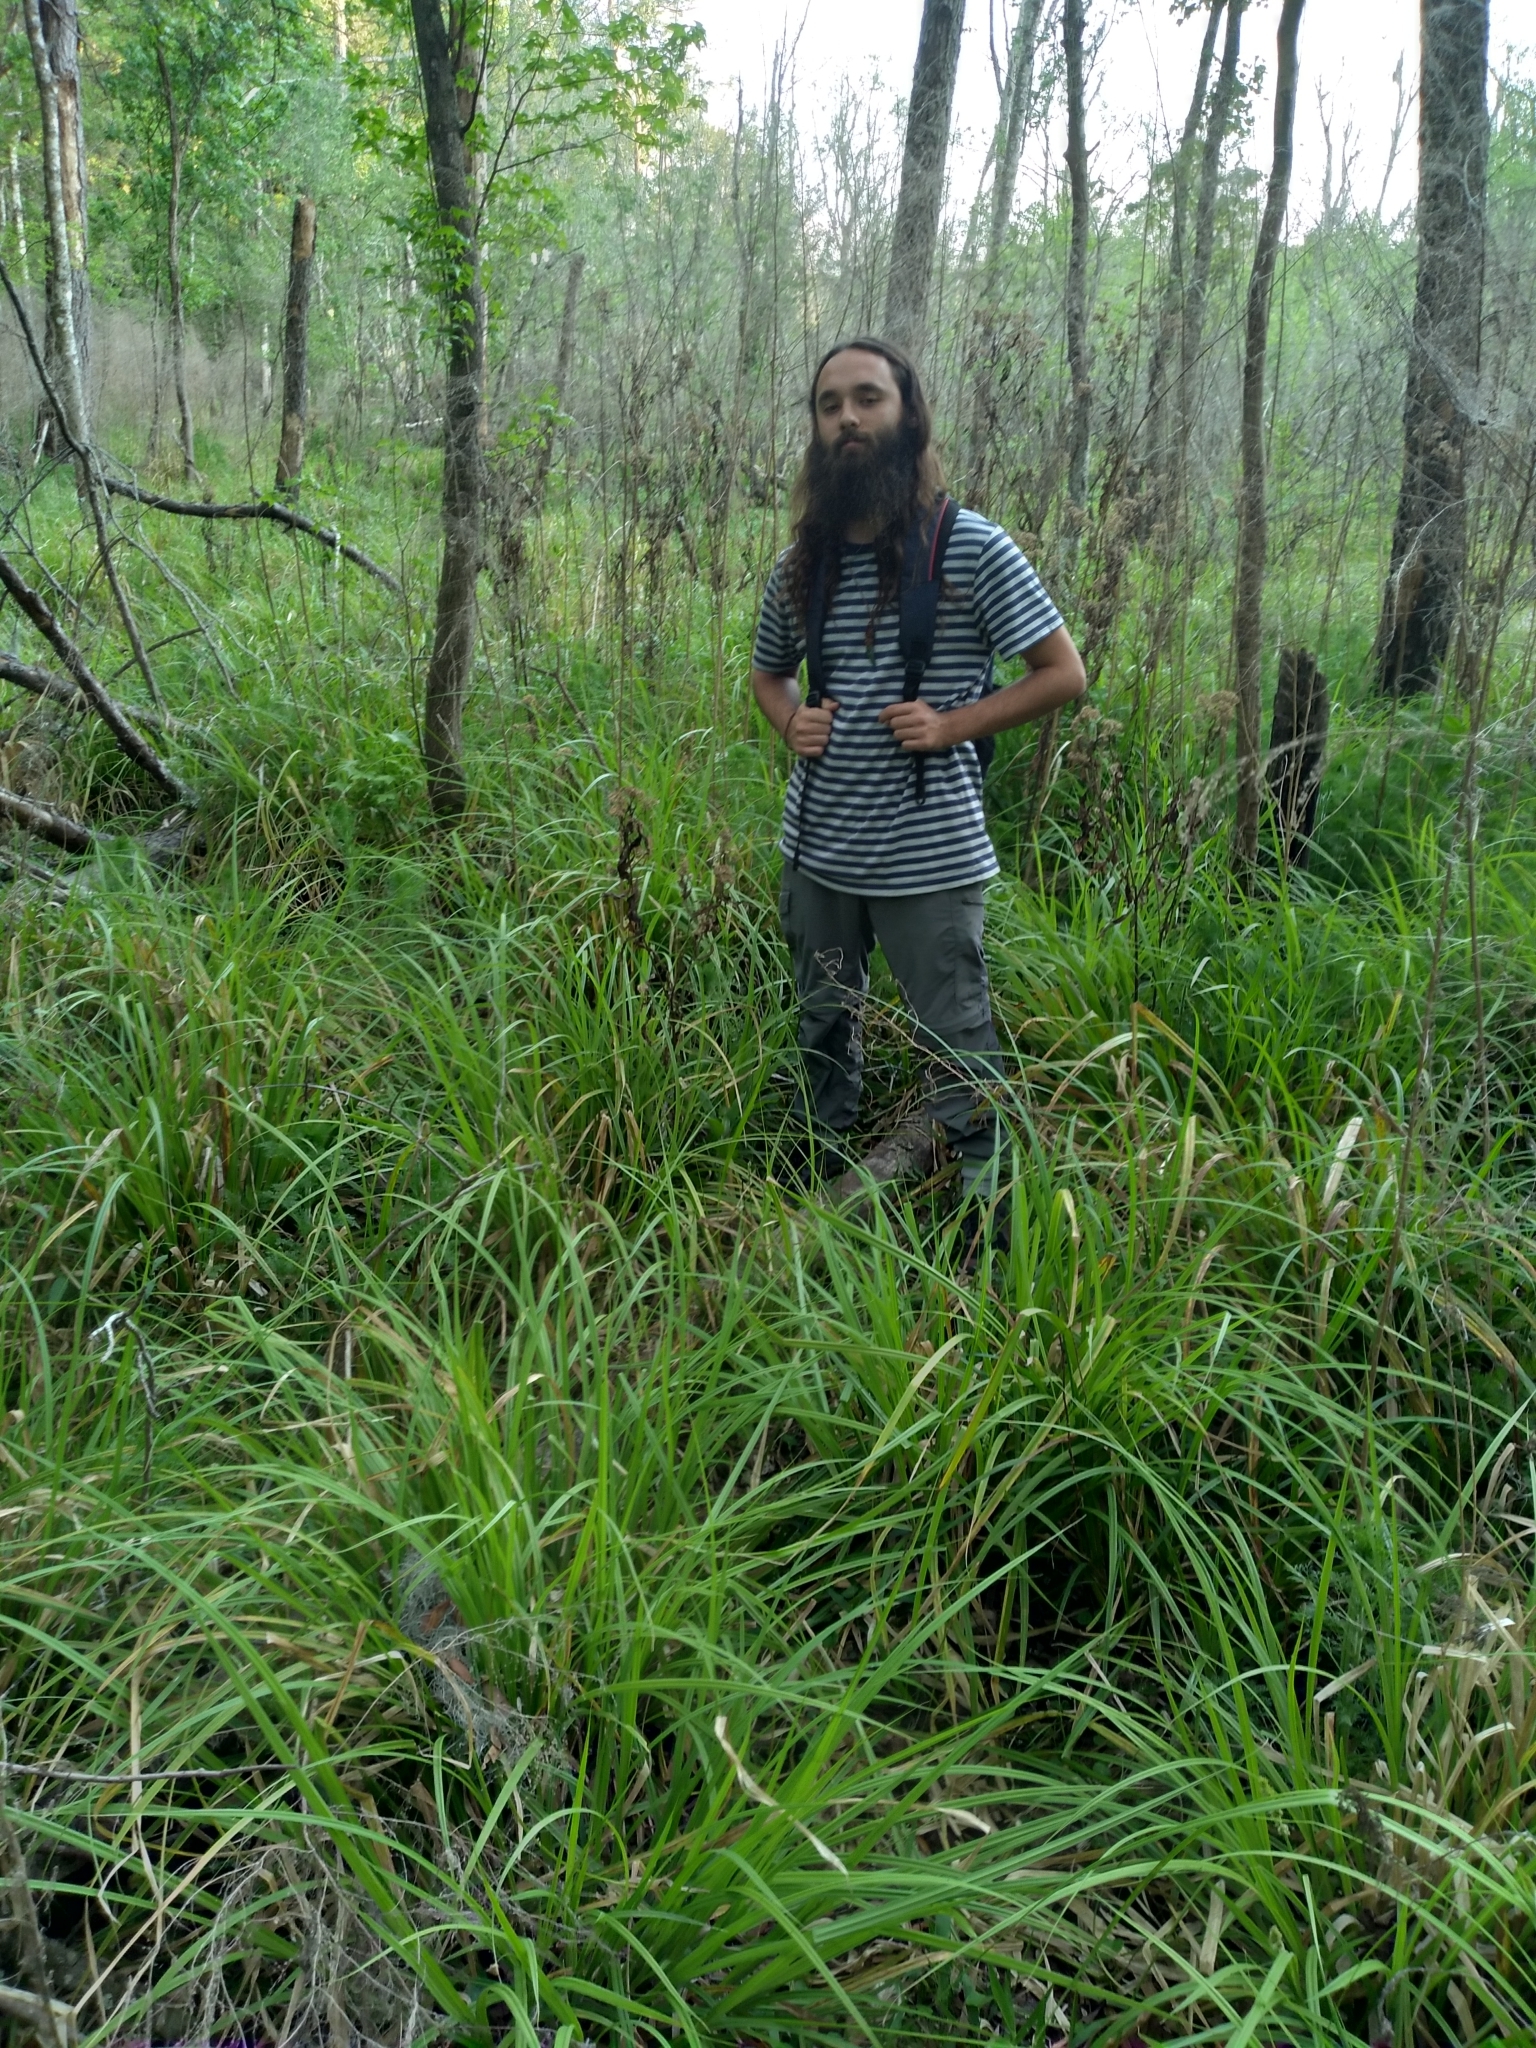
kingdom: Plantae
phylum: Tracheophyta
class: Liliopsida
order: Poales
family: Cyperaceae
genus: Carex
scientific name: Carex stipata
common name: Awl-fruited sedge
